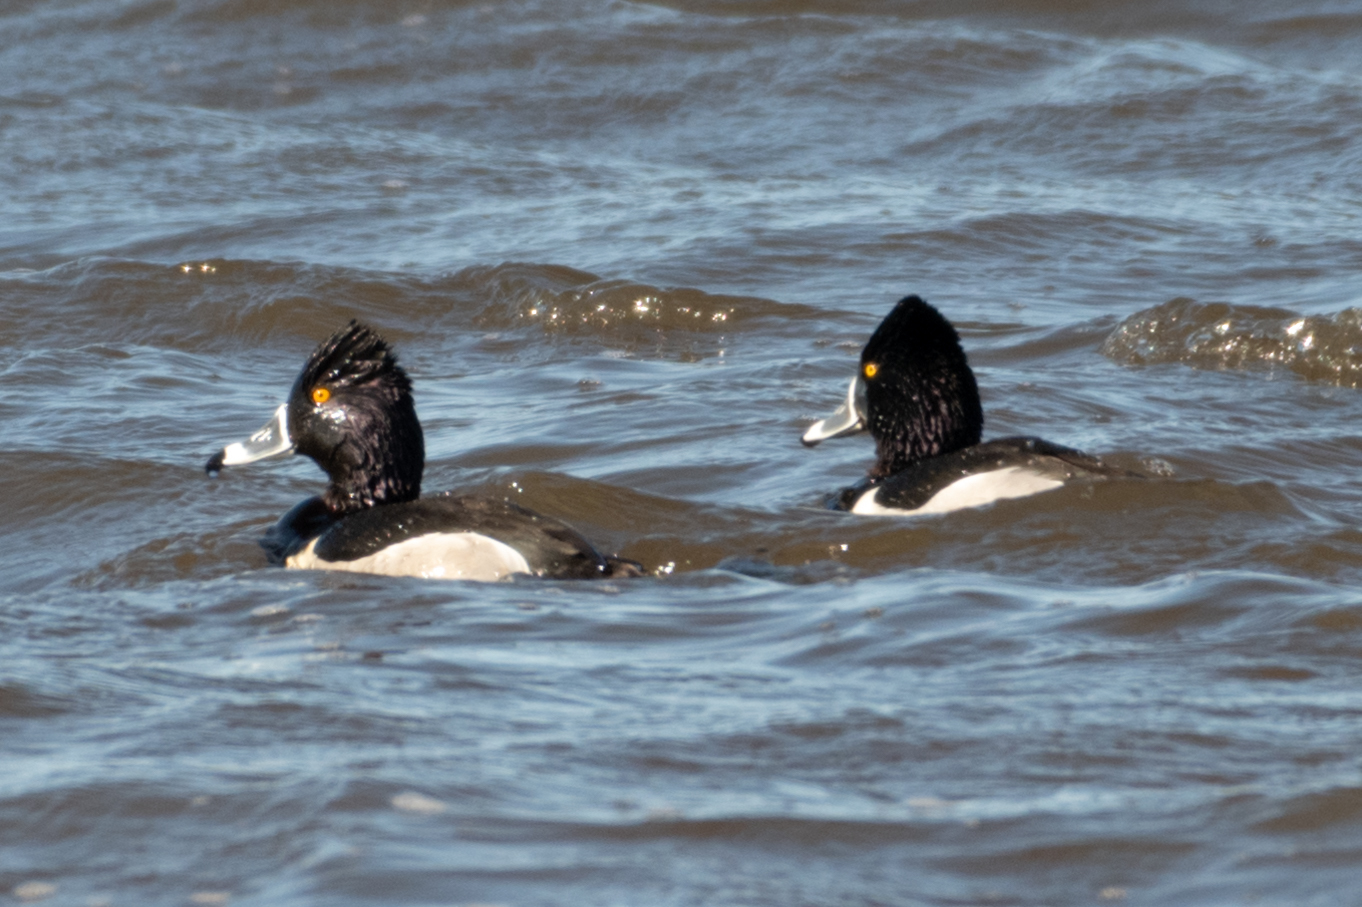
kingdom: Animalia
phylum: Chordata
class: Aves
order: Anseriformes
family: Anatidae
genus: Aythya
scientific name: Aythya collaris
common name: Ring-necked duck
